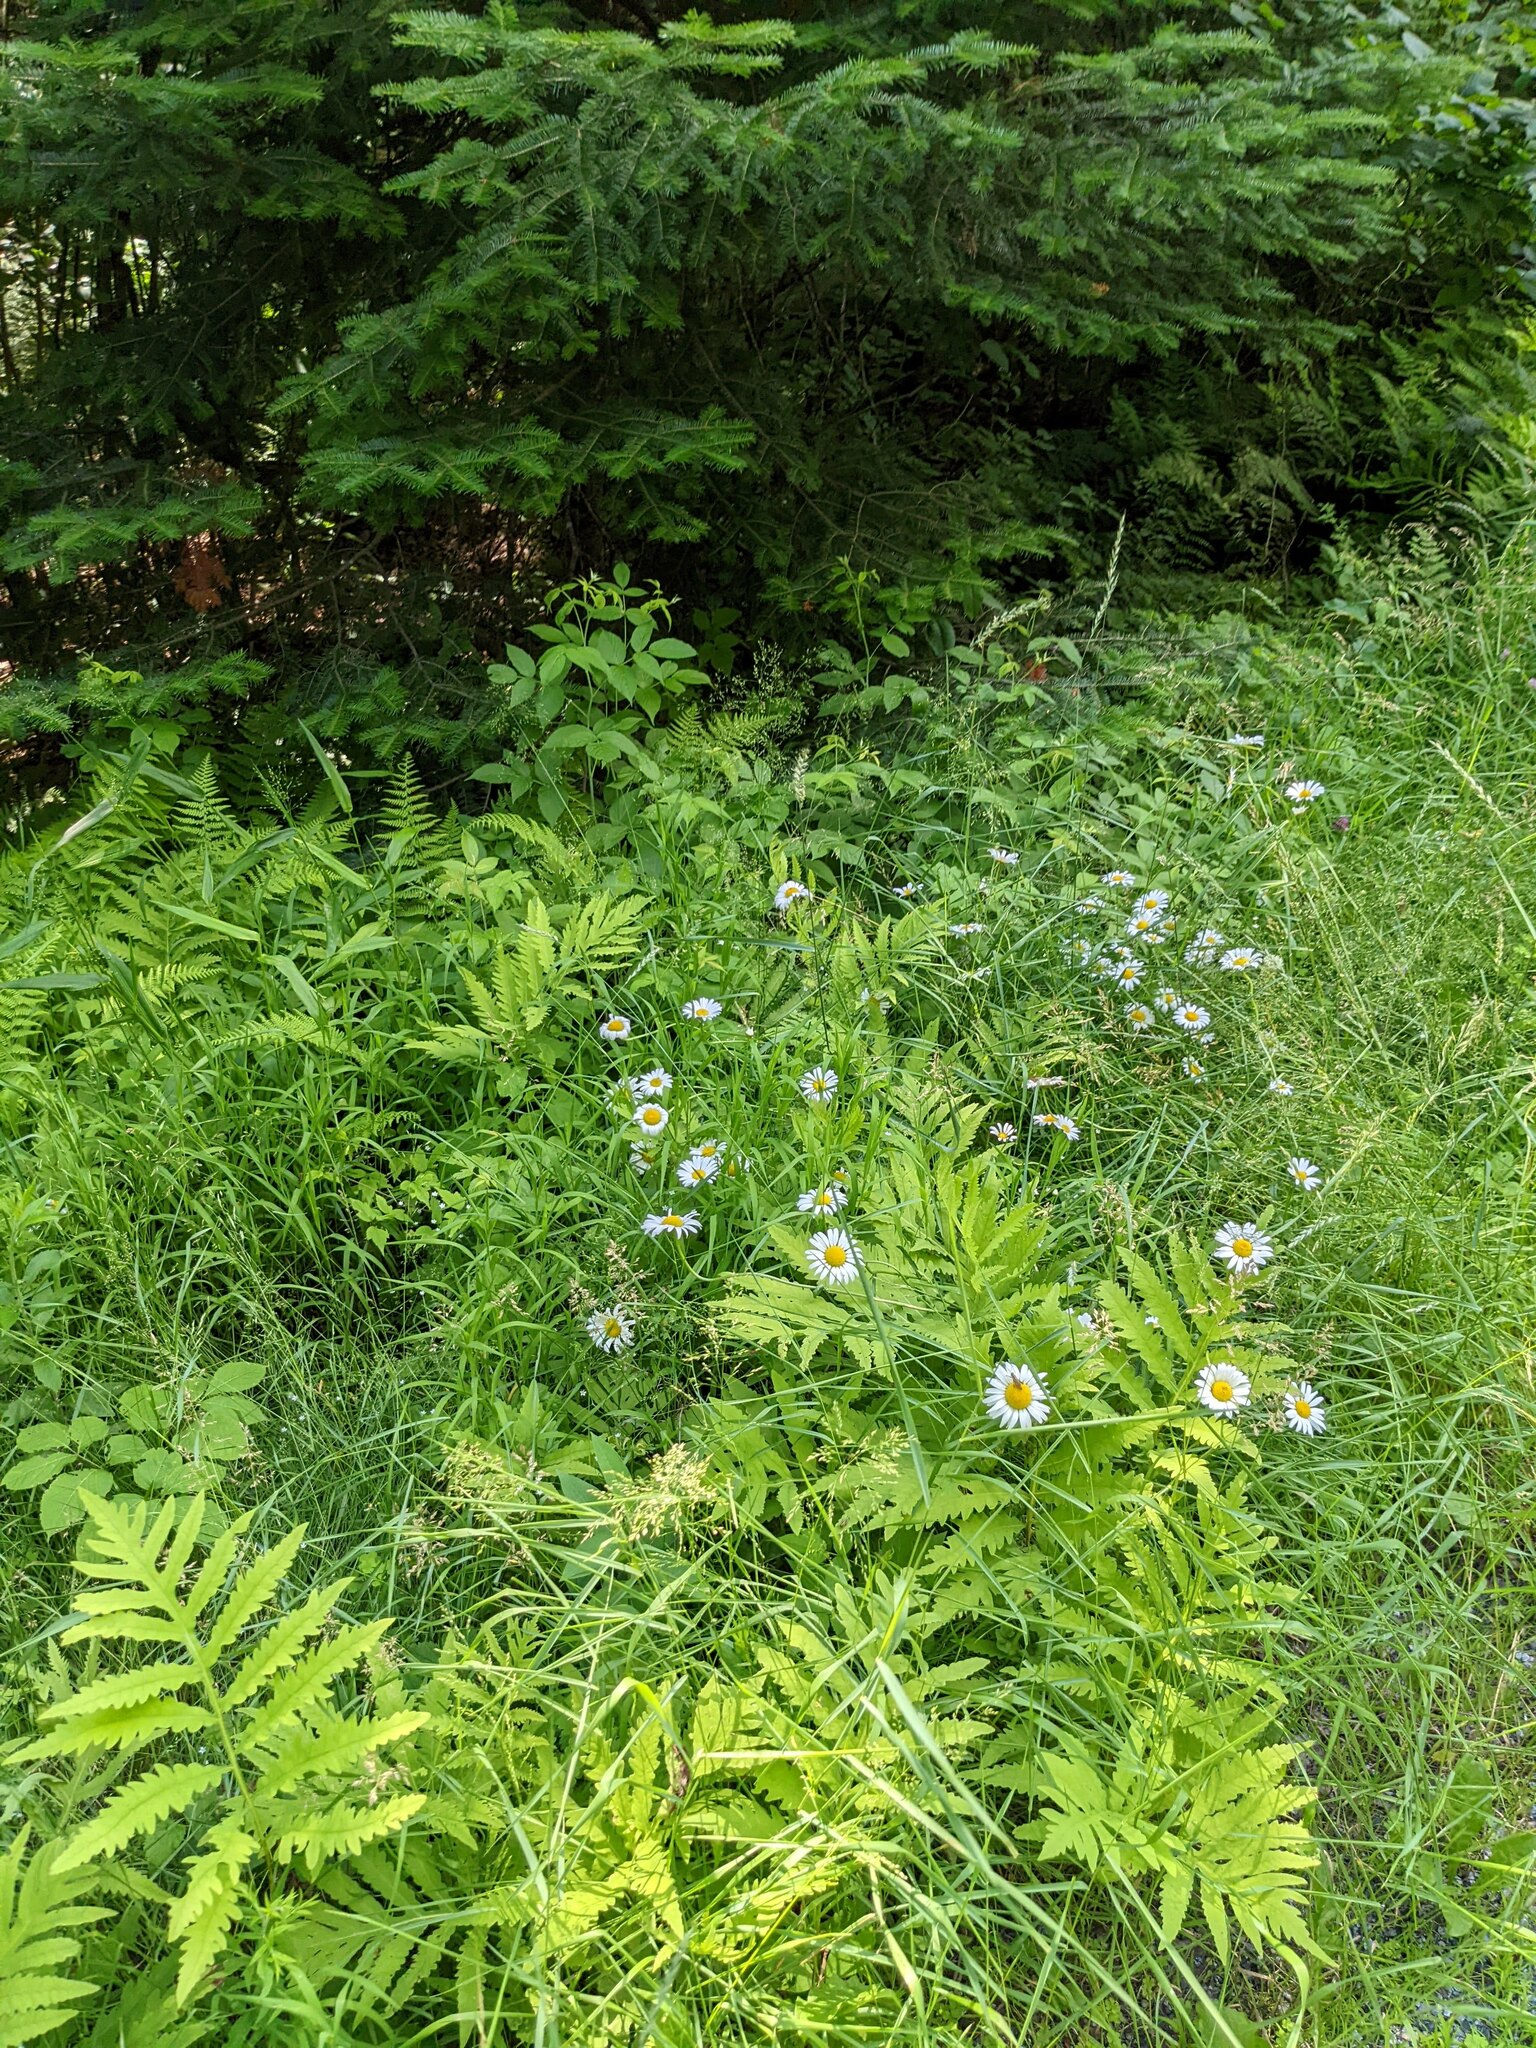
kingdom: Plantae
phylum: Tracheophyta
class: Polypodiopsida
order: Polypodiales
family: Onocleaceae
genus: Onoclea
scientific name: Onoclea sensibilis
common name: Sensitive fern
